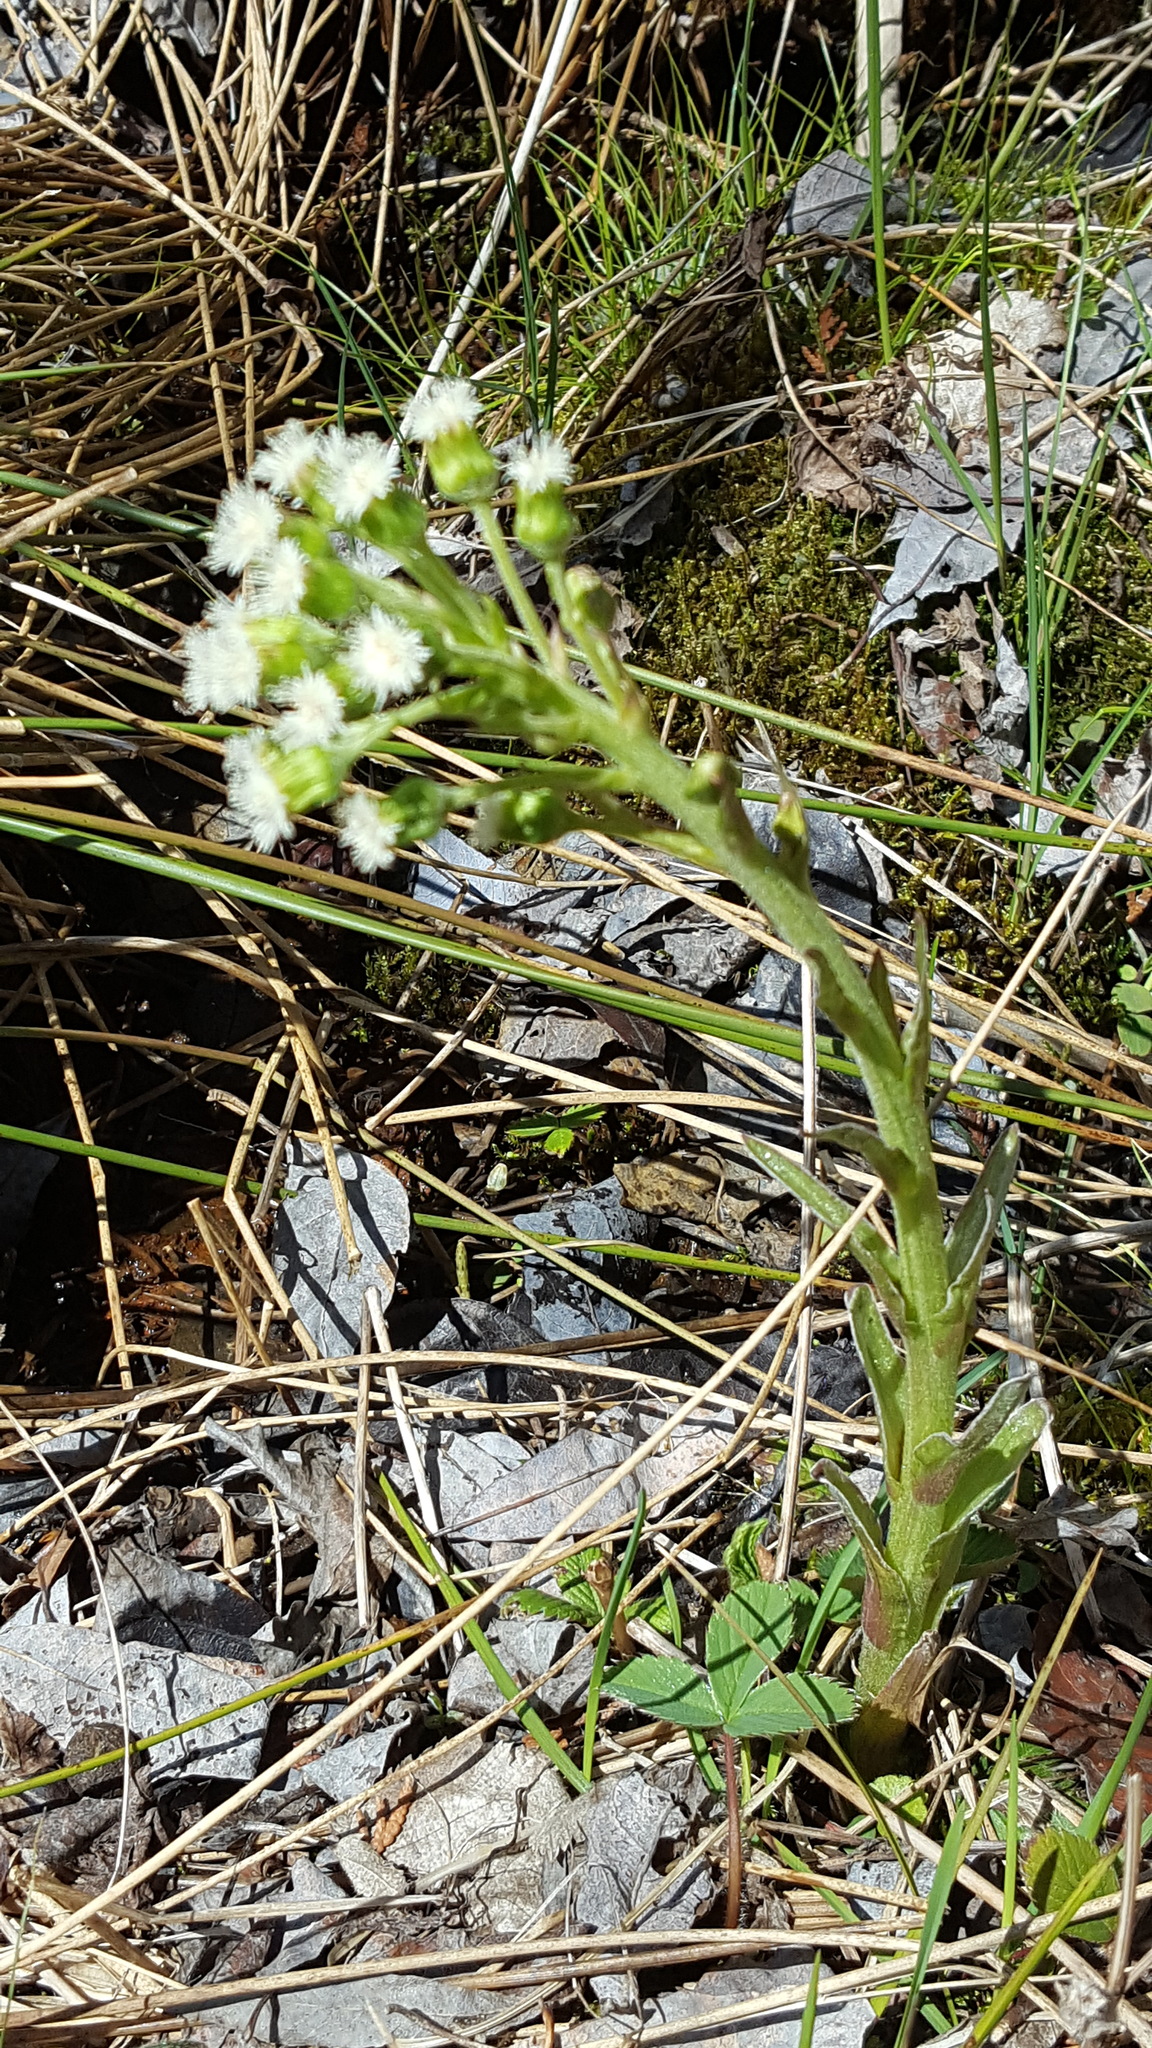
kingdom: Plantae
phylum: Tracheophyta
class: Magnoliopsida
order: Asterales
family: Asteraceae
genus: Petasites
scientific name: Petasites frigidus
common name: Arctic butterbur
